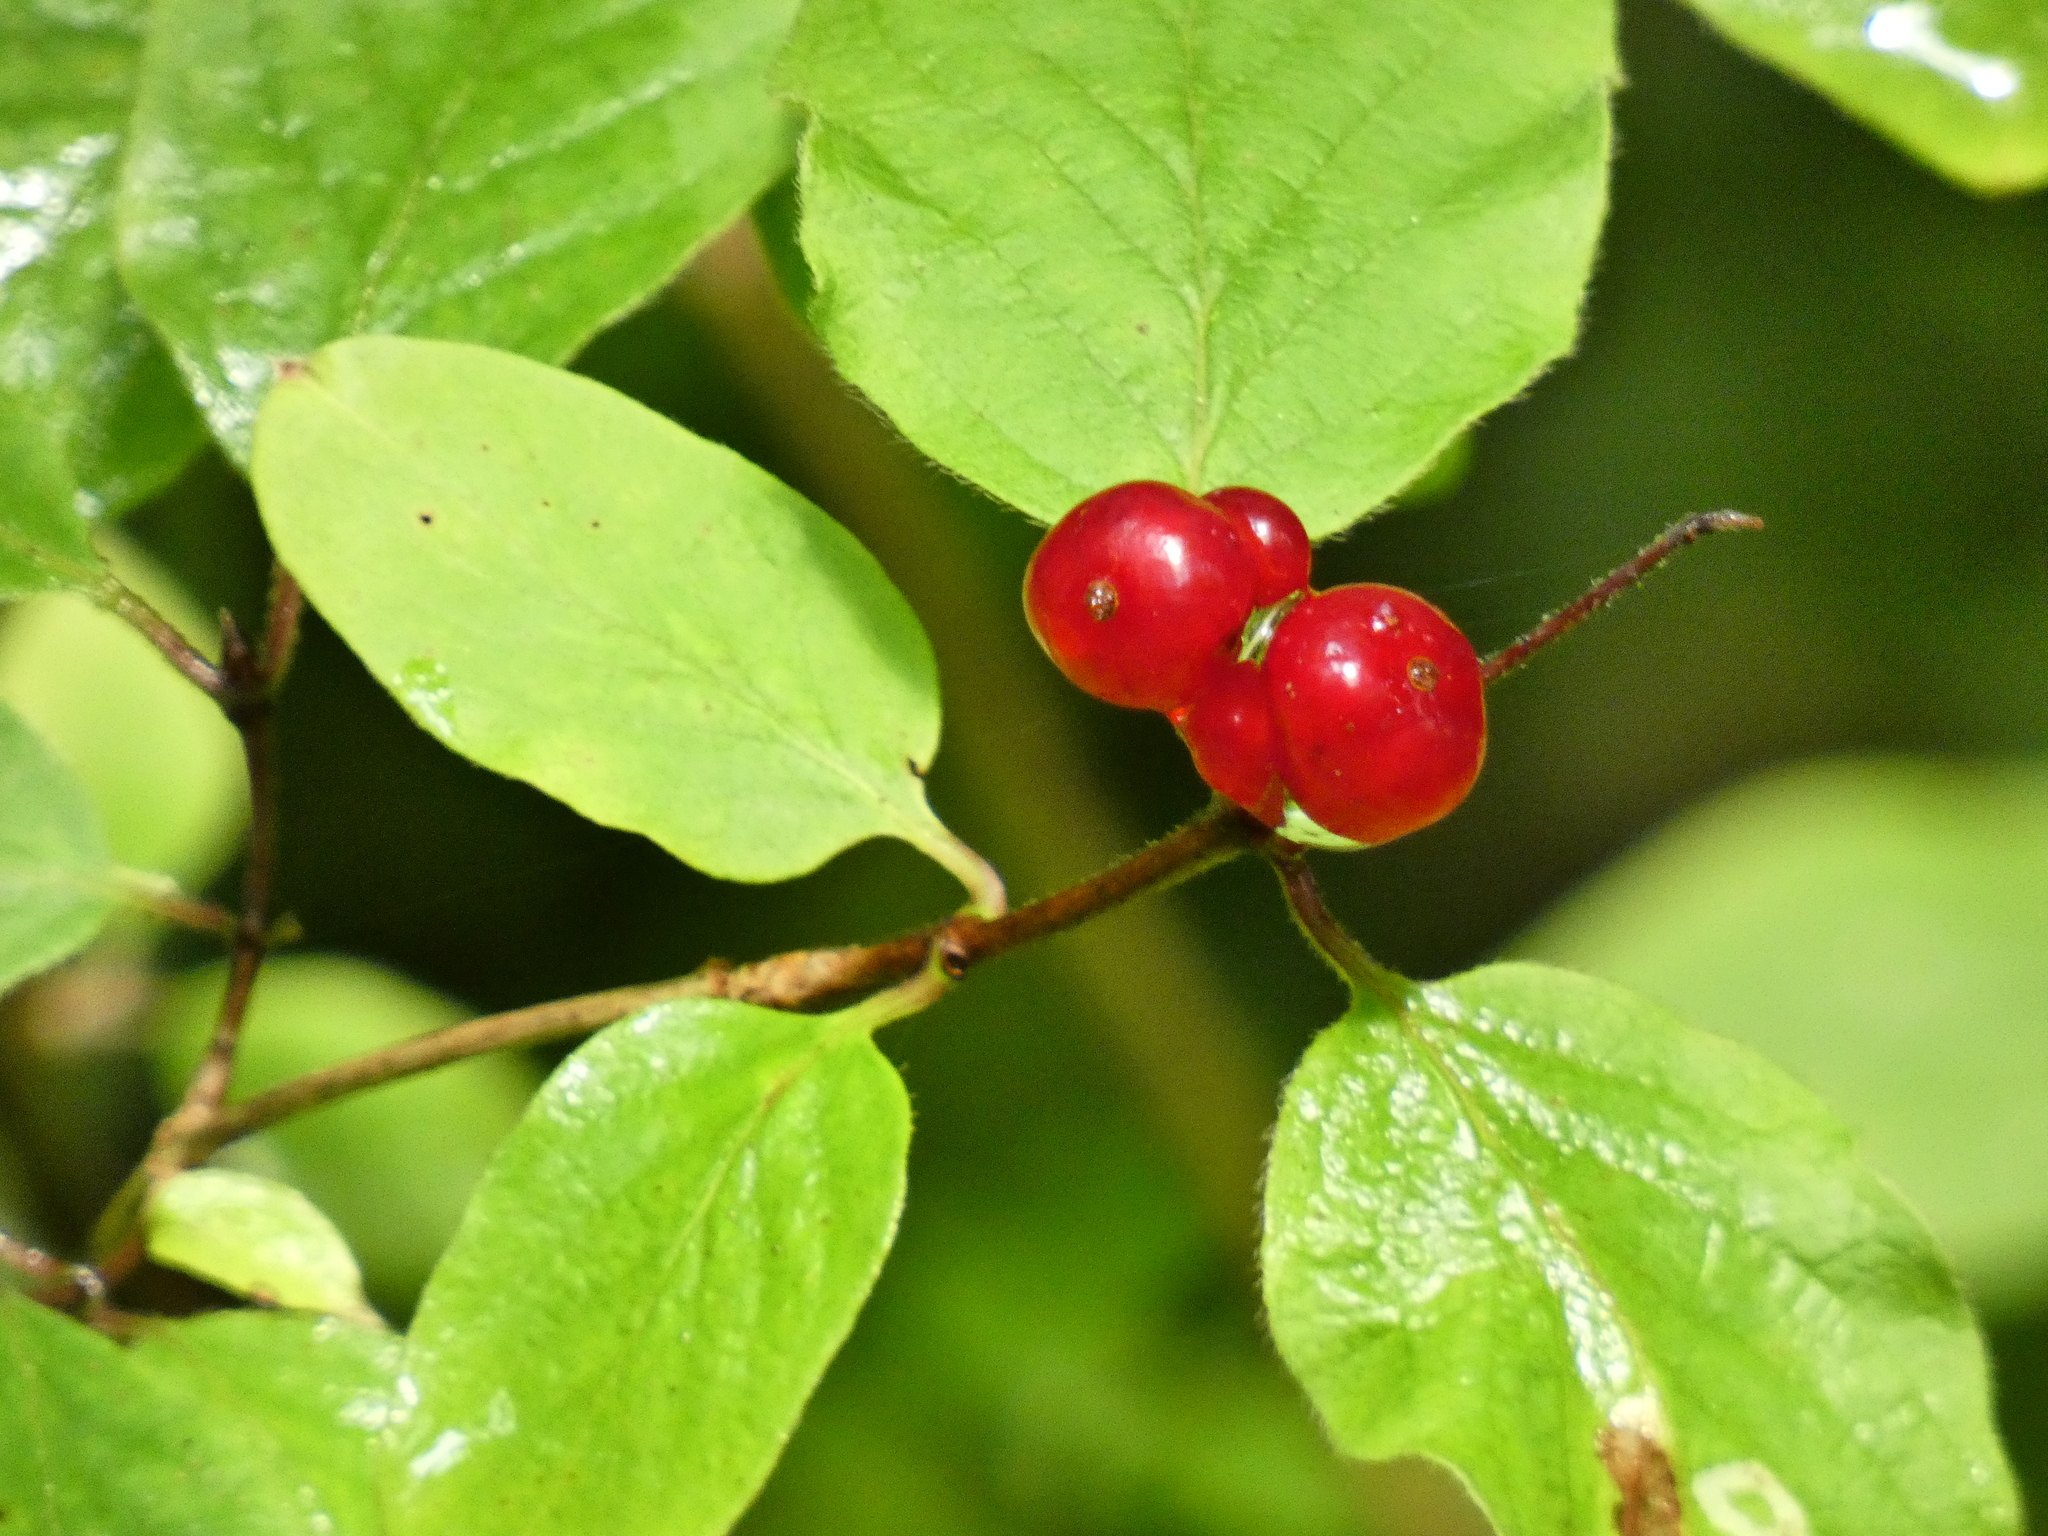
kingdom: Plantae
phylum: Tracheophyta
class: Magnoliopsida
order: Dipsacales
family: Caprifoliaceae
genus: Lonicera
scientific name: Lonicera xylosteum
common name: Fly honeysuckle
